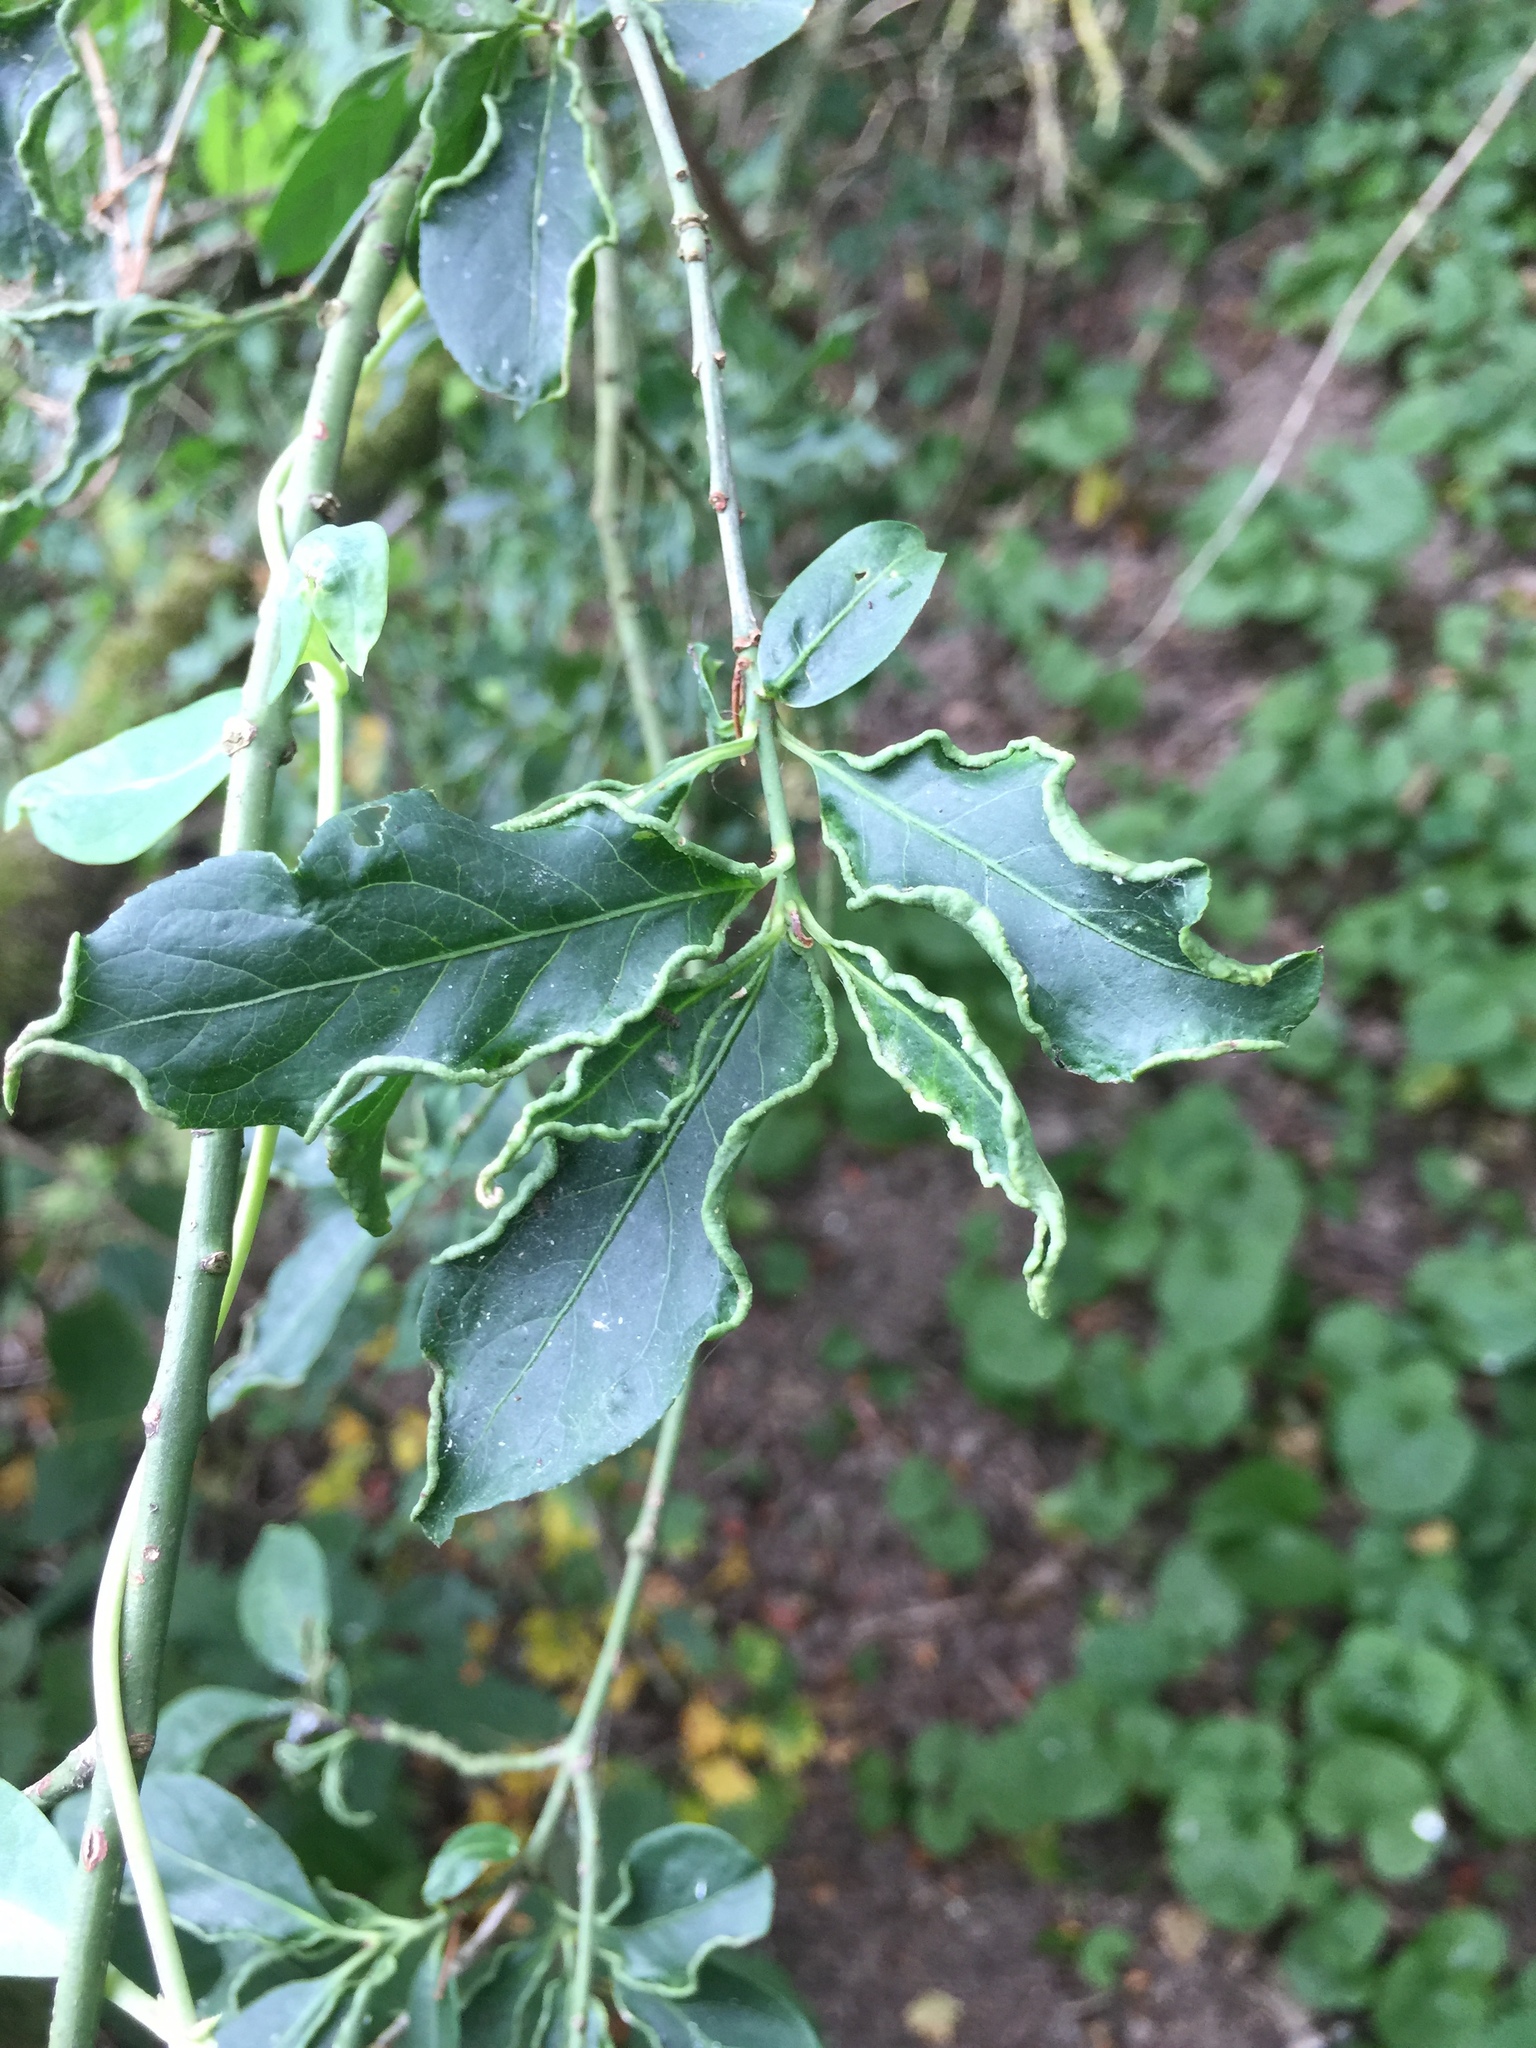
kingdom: Animalia
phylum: Arthropoda
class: Arachnida
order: Trombidiformes
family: Eriophyidae
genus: Stenacis
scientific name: Stenacis evonymi
